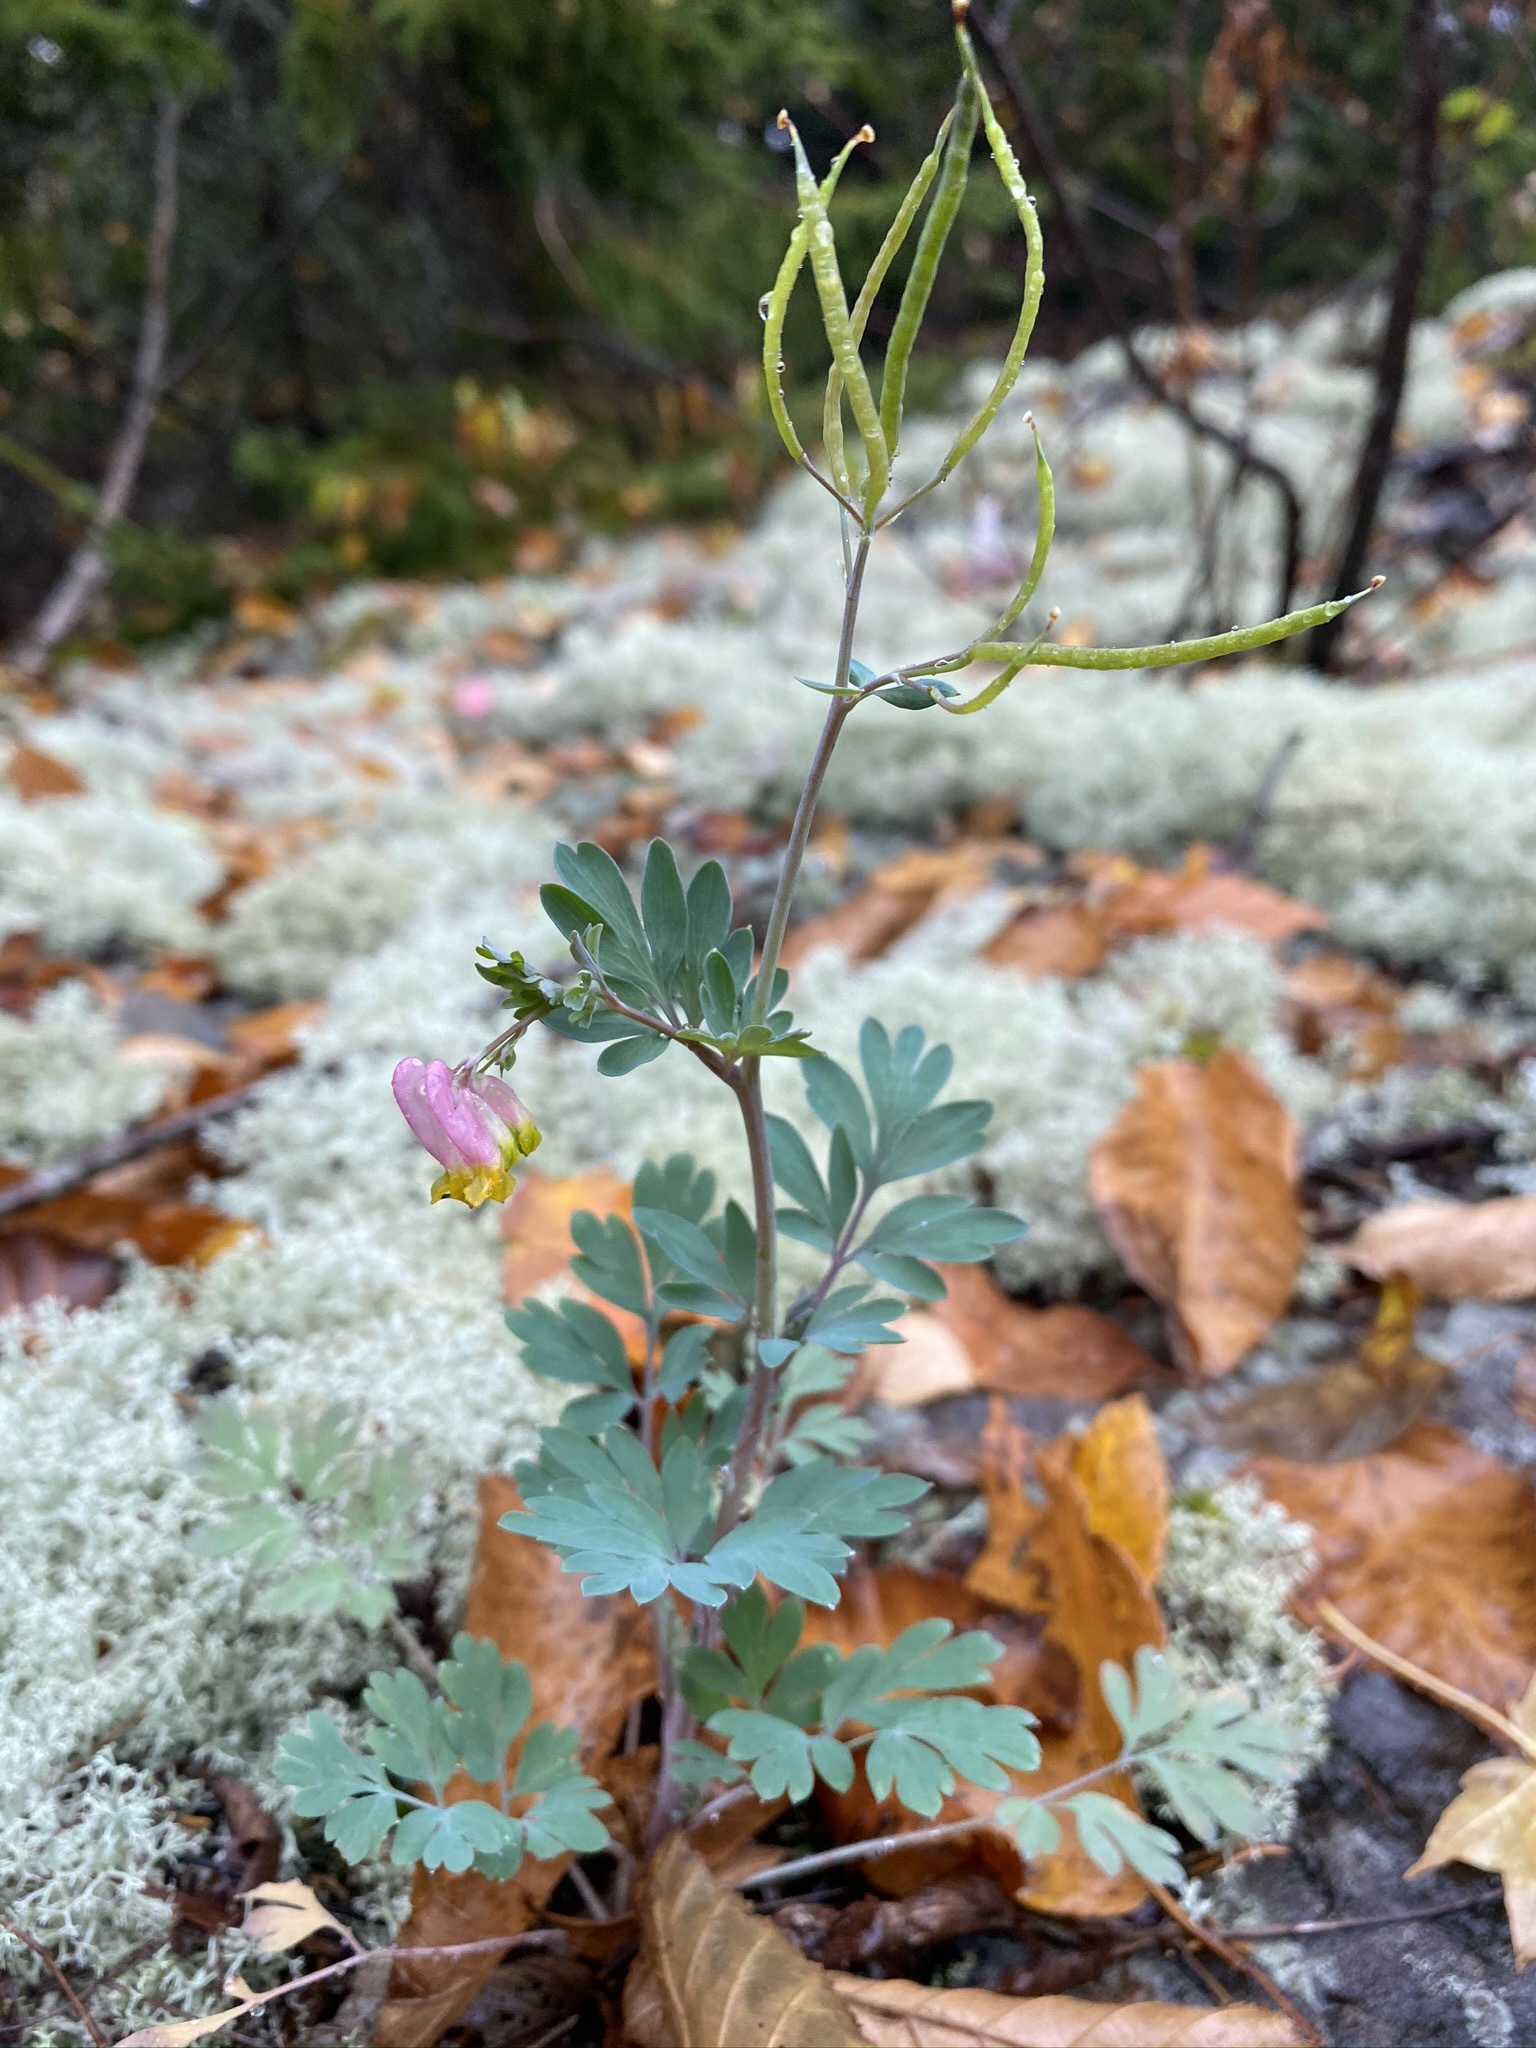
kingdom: Plantae
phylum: Tracheophyta
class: Magnoliopsida
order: Ranunculales
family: Papaveraceae
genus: Capnoides
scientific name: Capnoides sempervirens
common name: Rock harlequin
